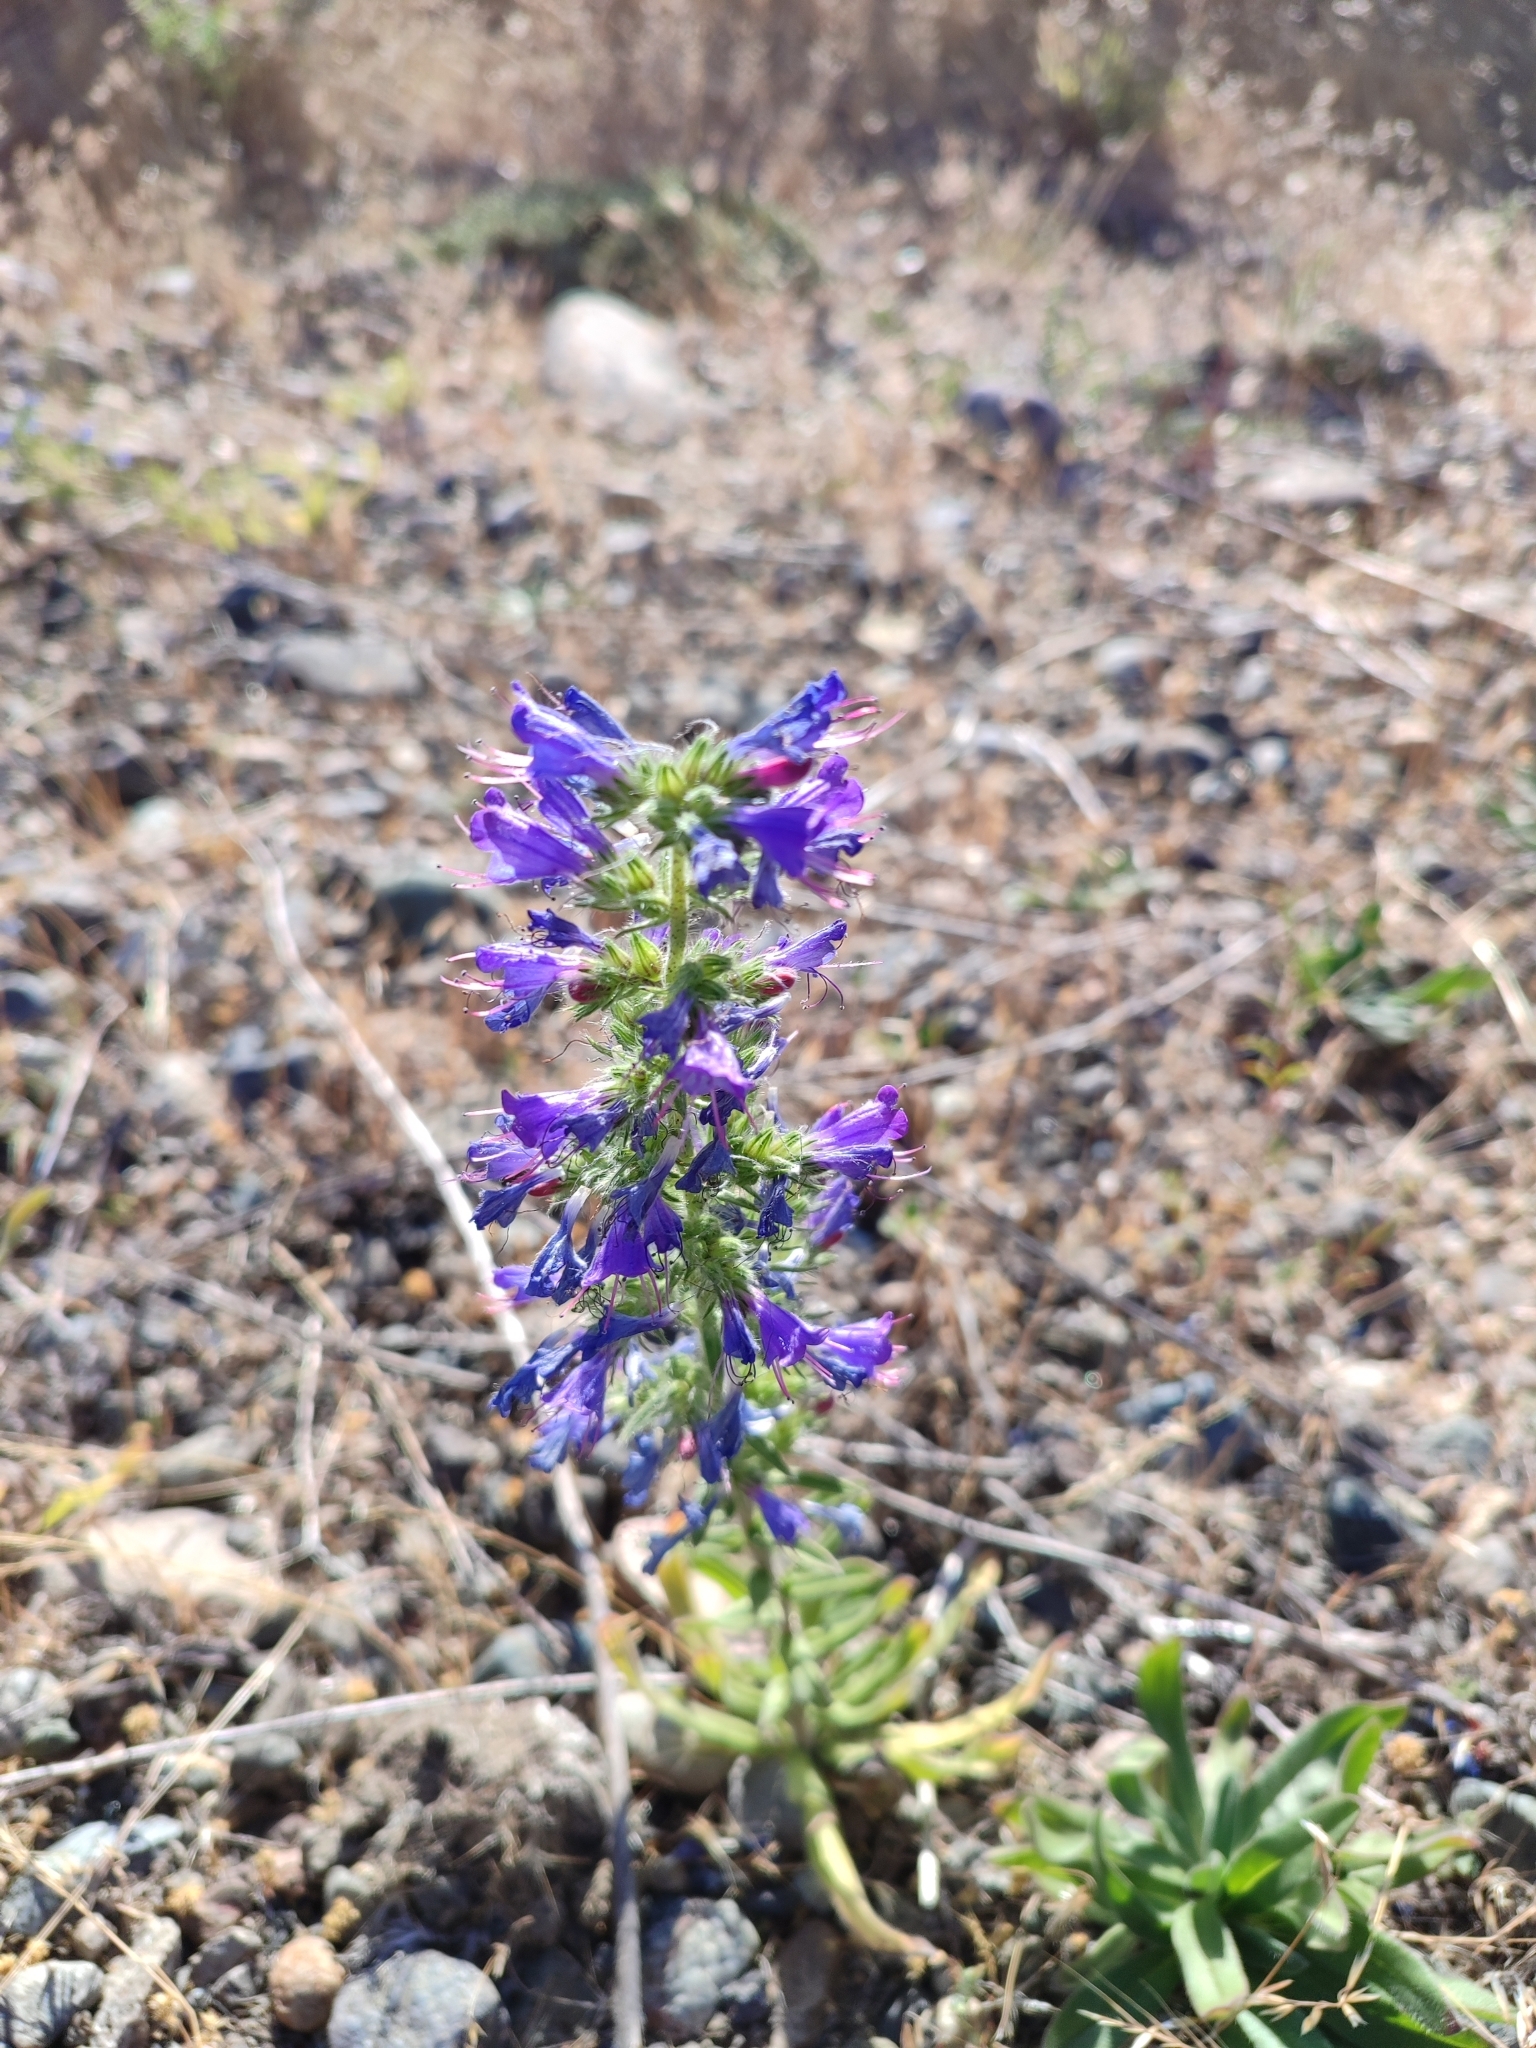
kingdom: Plantae
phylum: Tracheophyta
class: Magnoliopsida
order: Boraginales
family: Boraginaceae
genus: Echium
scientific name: Echium vulgare
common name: Common viper's bugloss
